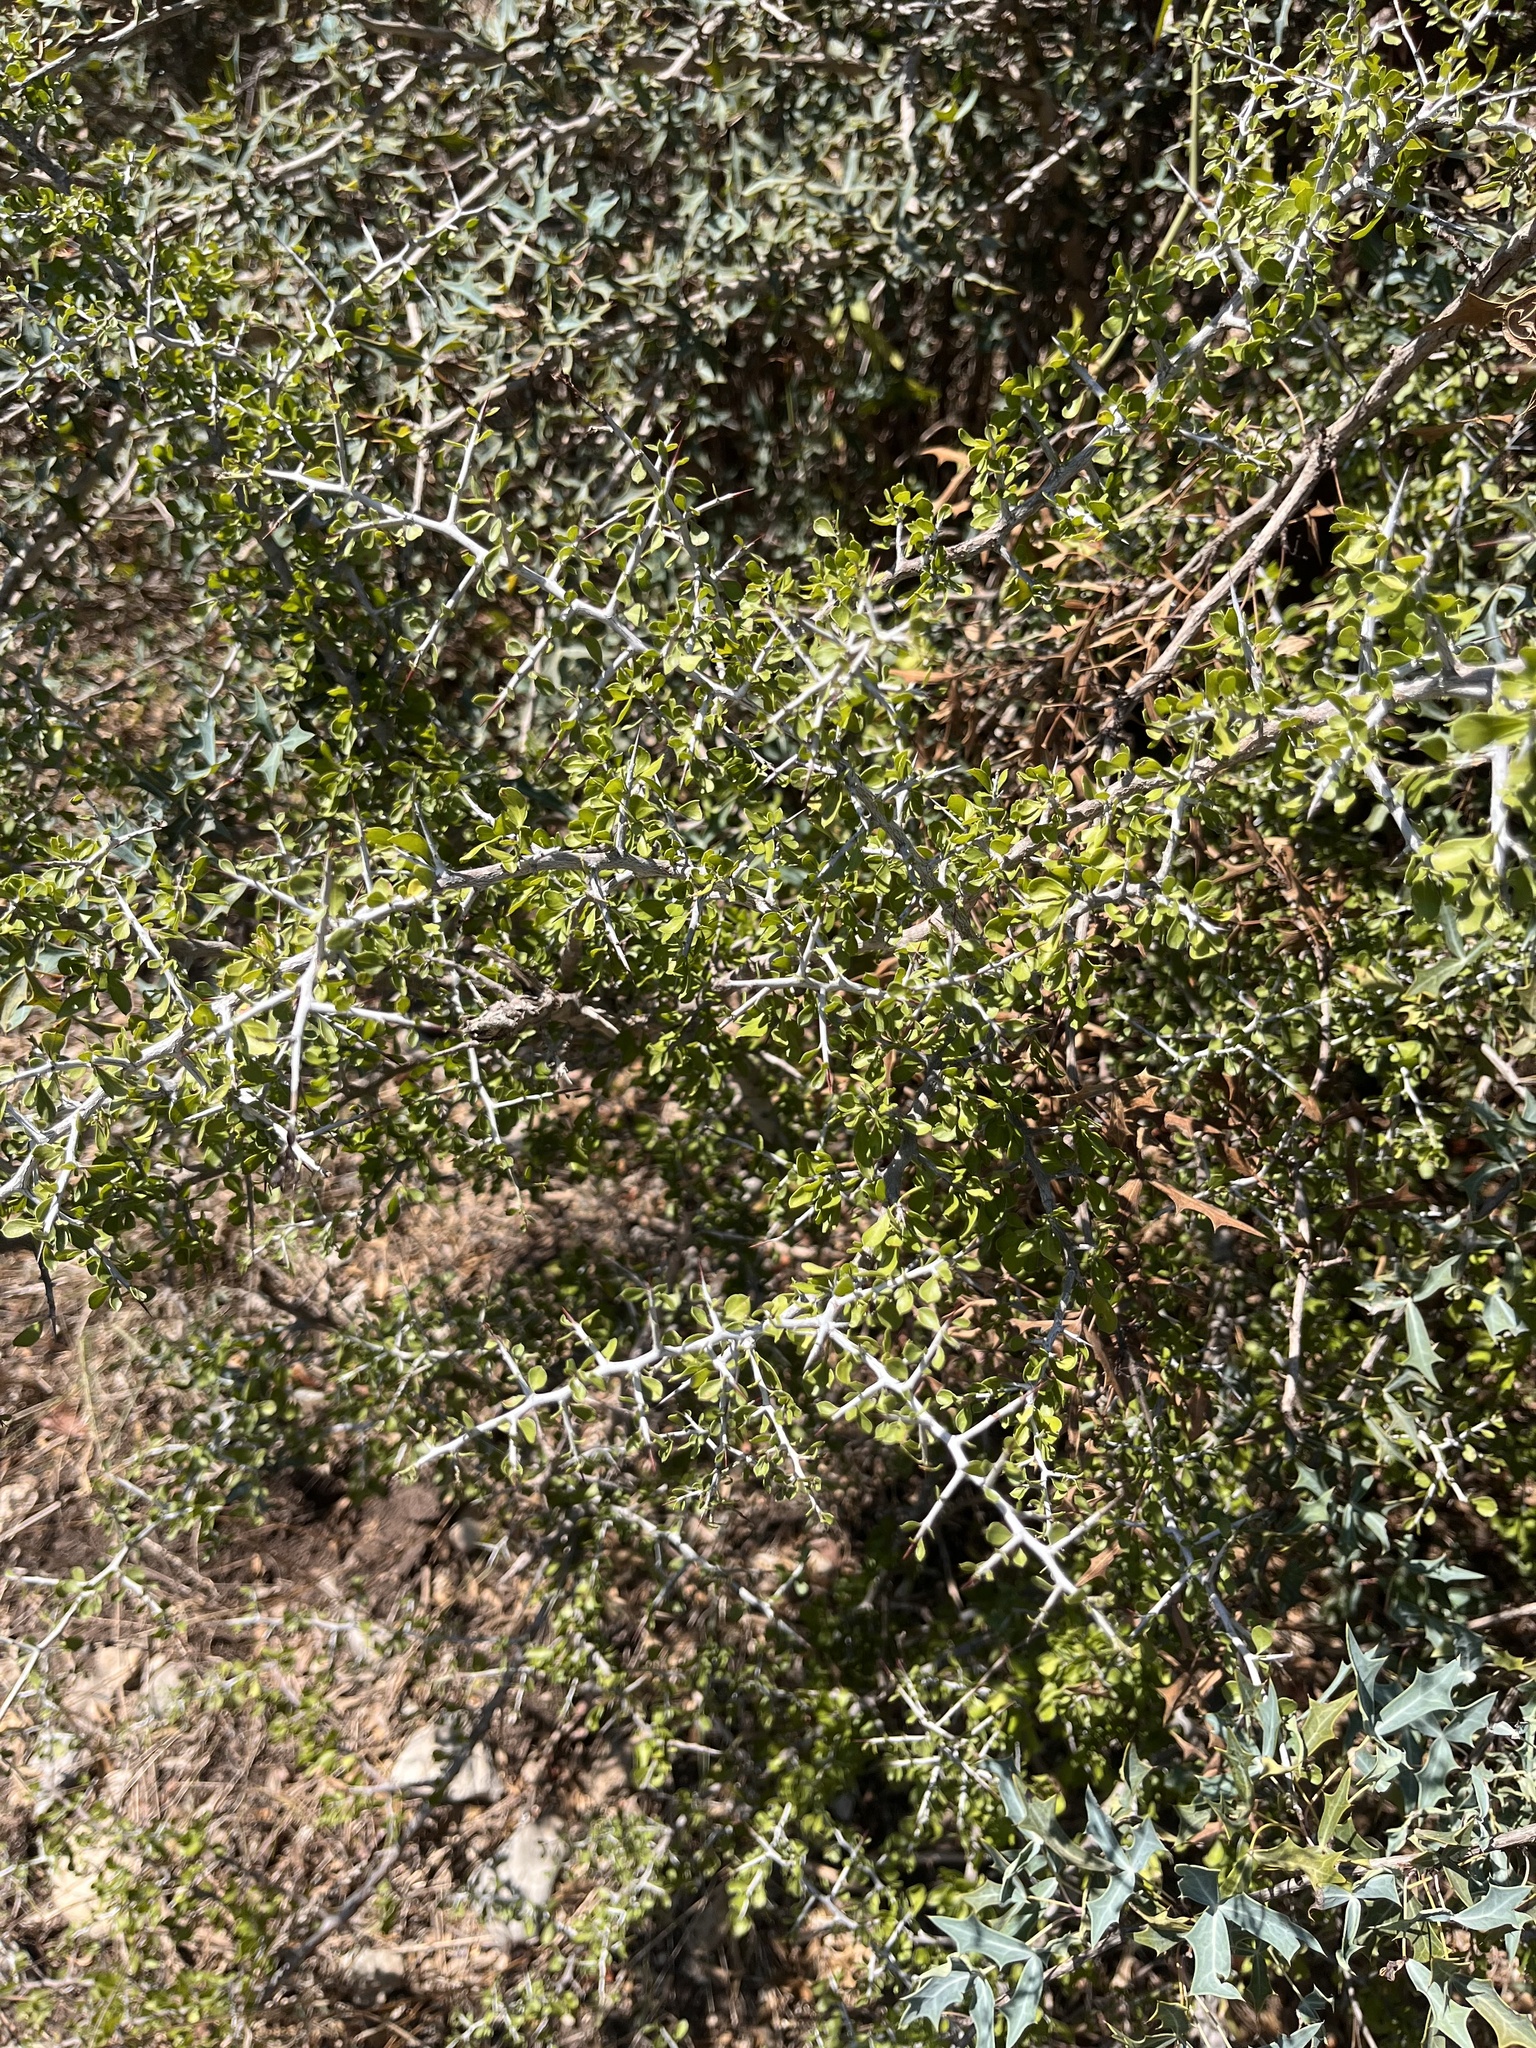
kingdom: Plantae
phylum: Tracheophyta
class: Magnoliopsida
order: Rosales
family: Rhamnaceae
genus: Condalia
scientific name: Condalia viridis
